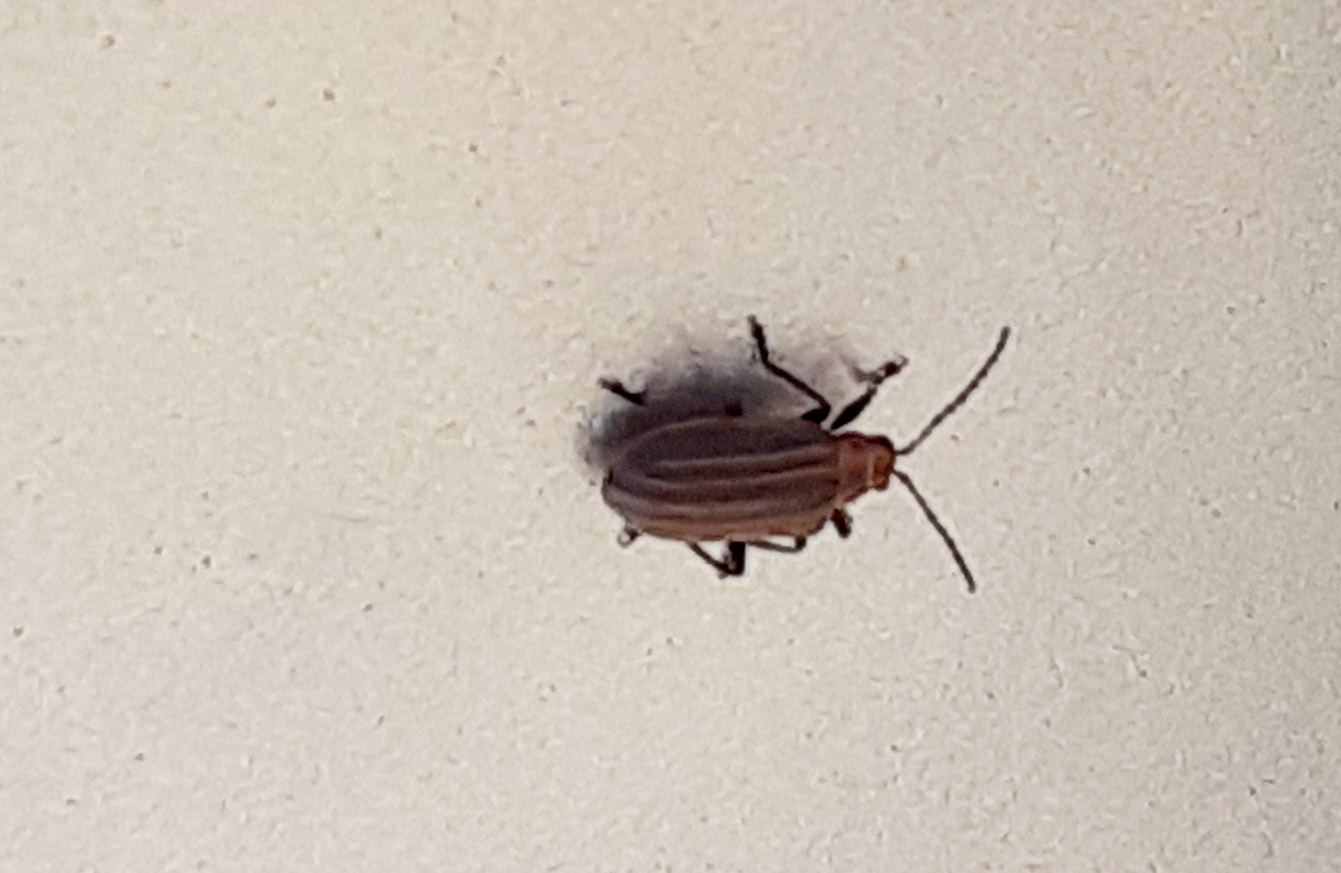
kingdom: Animalia
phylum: Arthropoda
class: Insecta
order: Coleoptera
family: Chrysomelidae
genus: Neolochmaea
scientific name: Neolochmaea dilatipennis
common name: Skeletonizing leaf beetle
